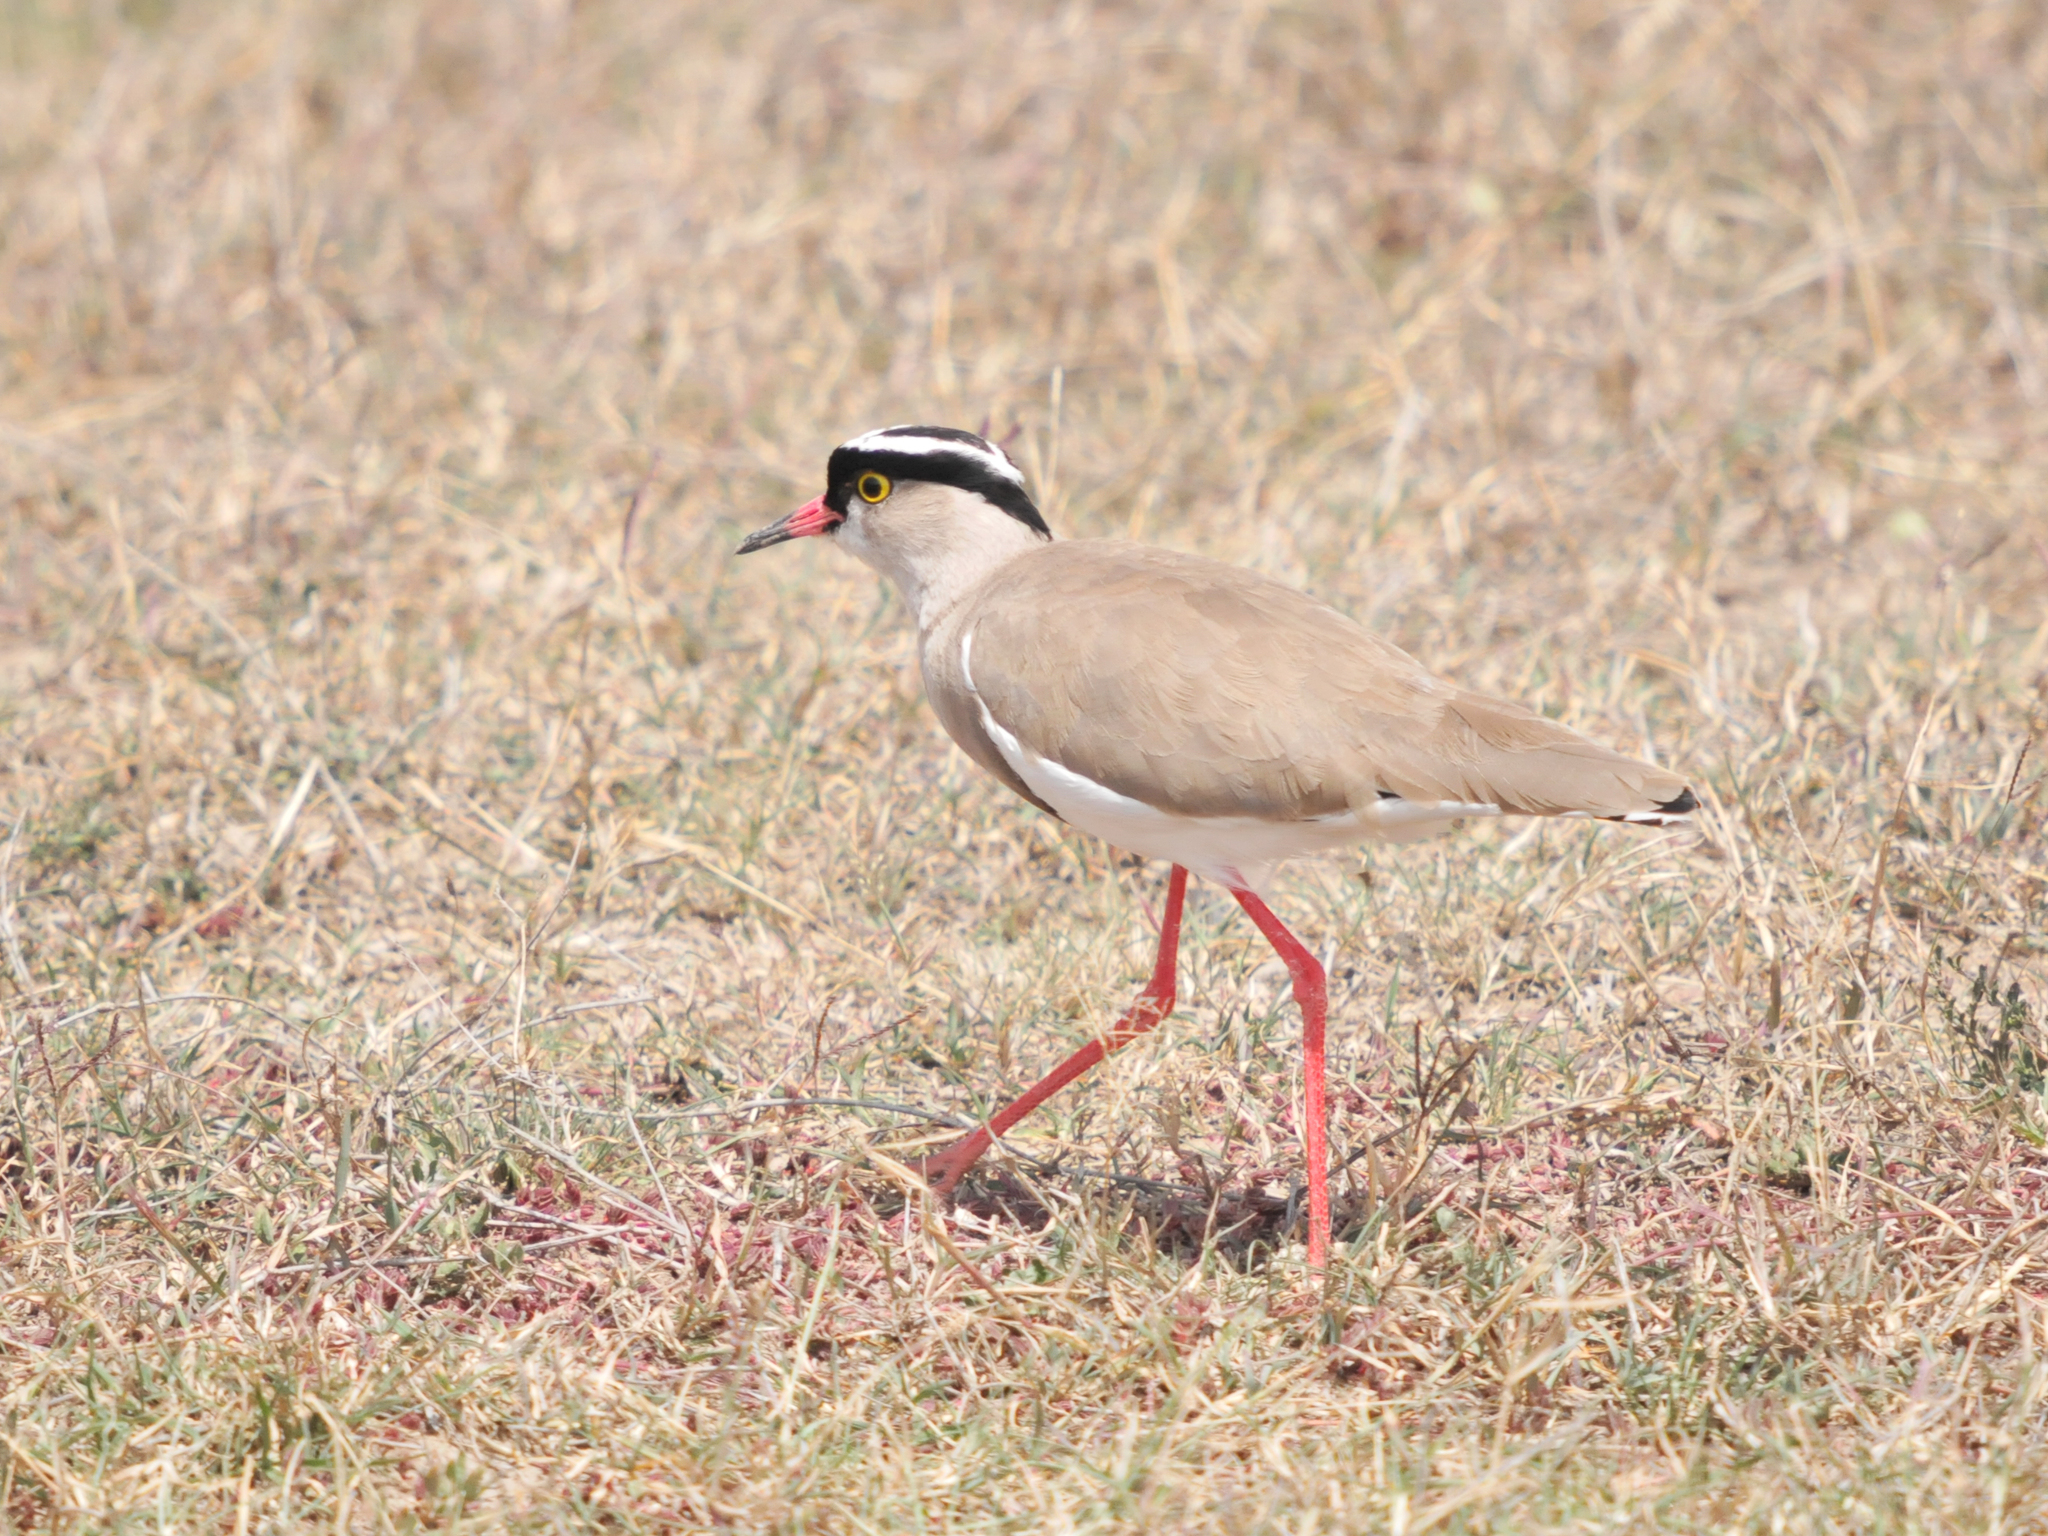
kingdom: Animalia
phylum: Chordata
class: Aves
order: Charadriiformes
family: Charadriidae
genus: Vanellus
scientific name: Vanellus coronatus
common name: Crowned lapwing
